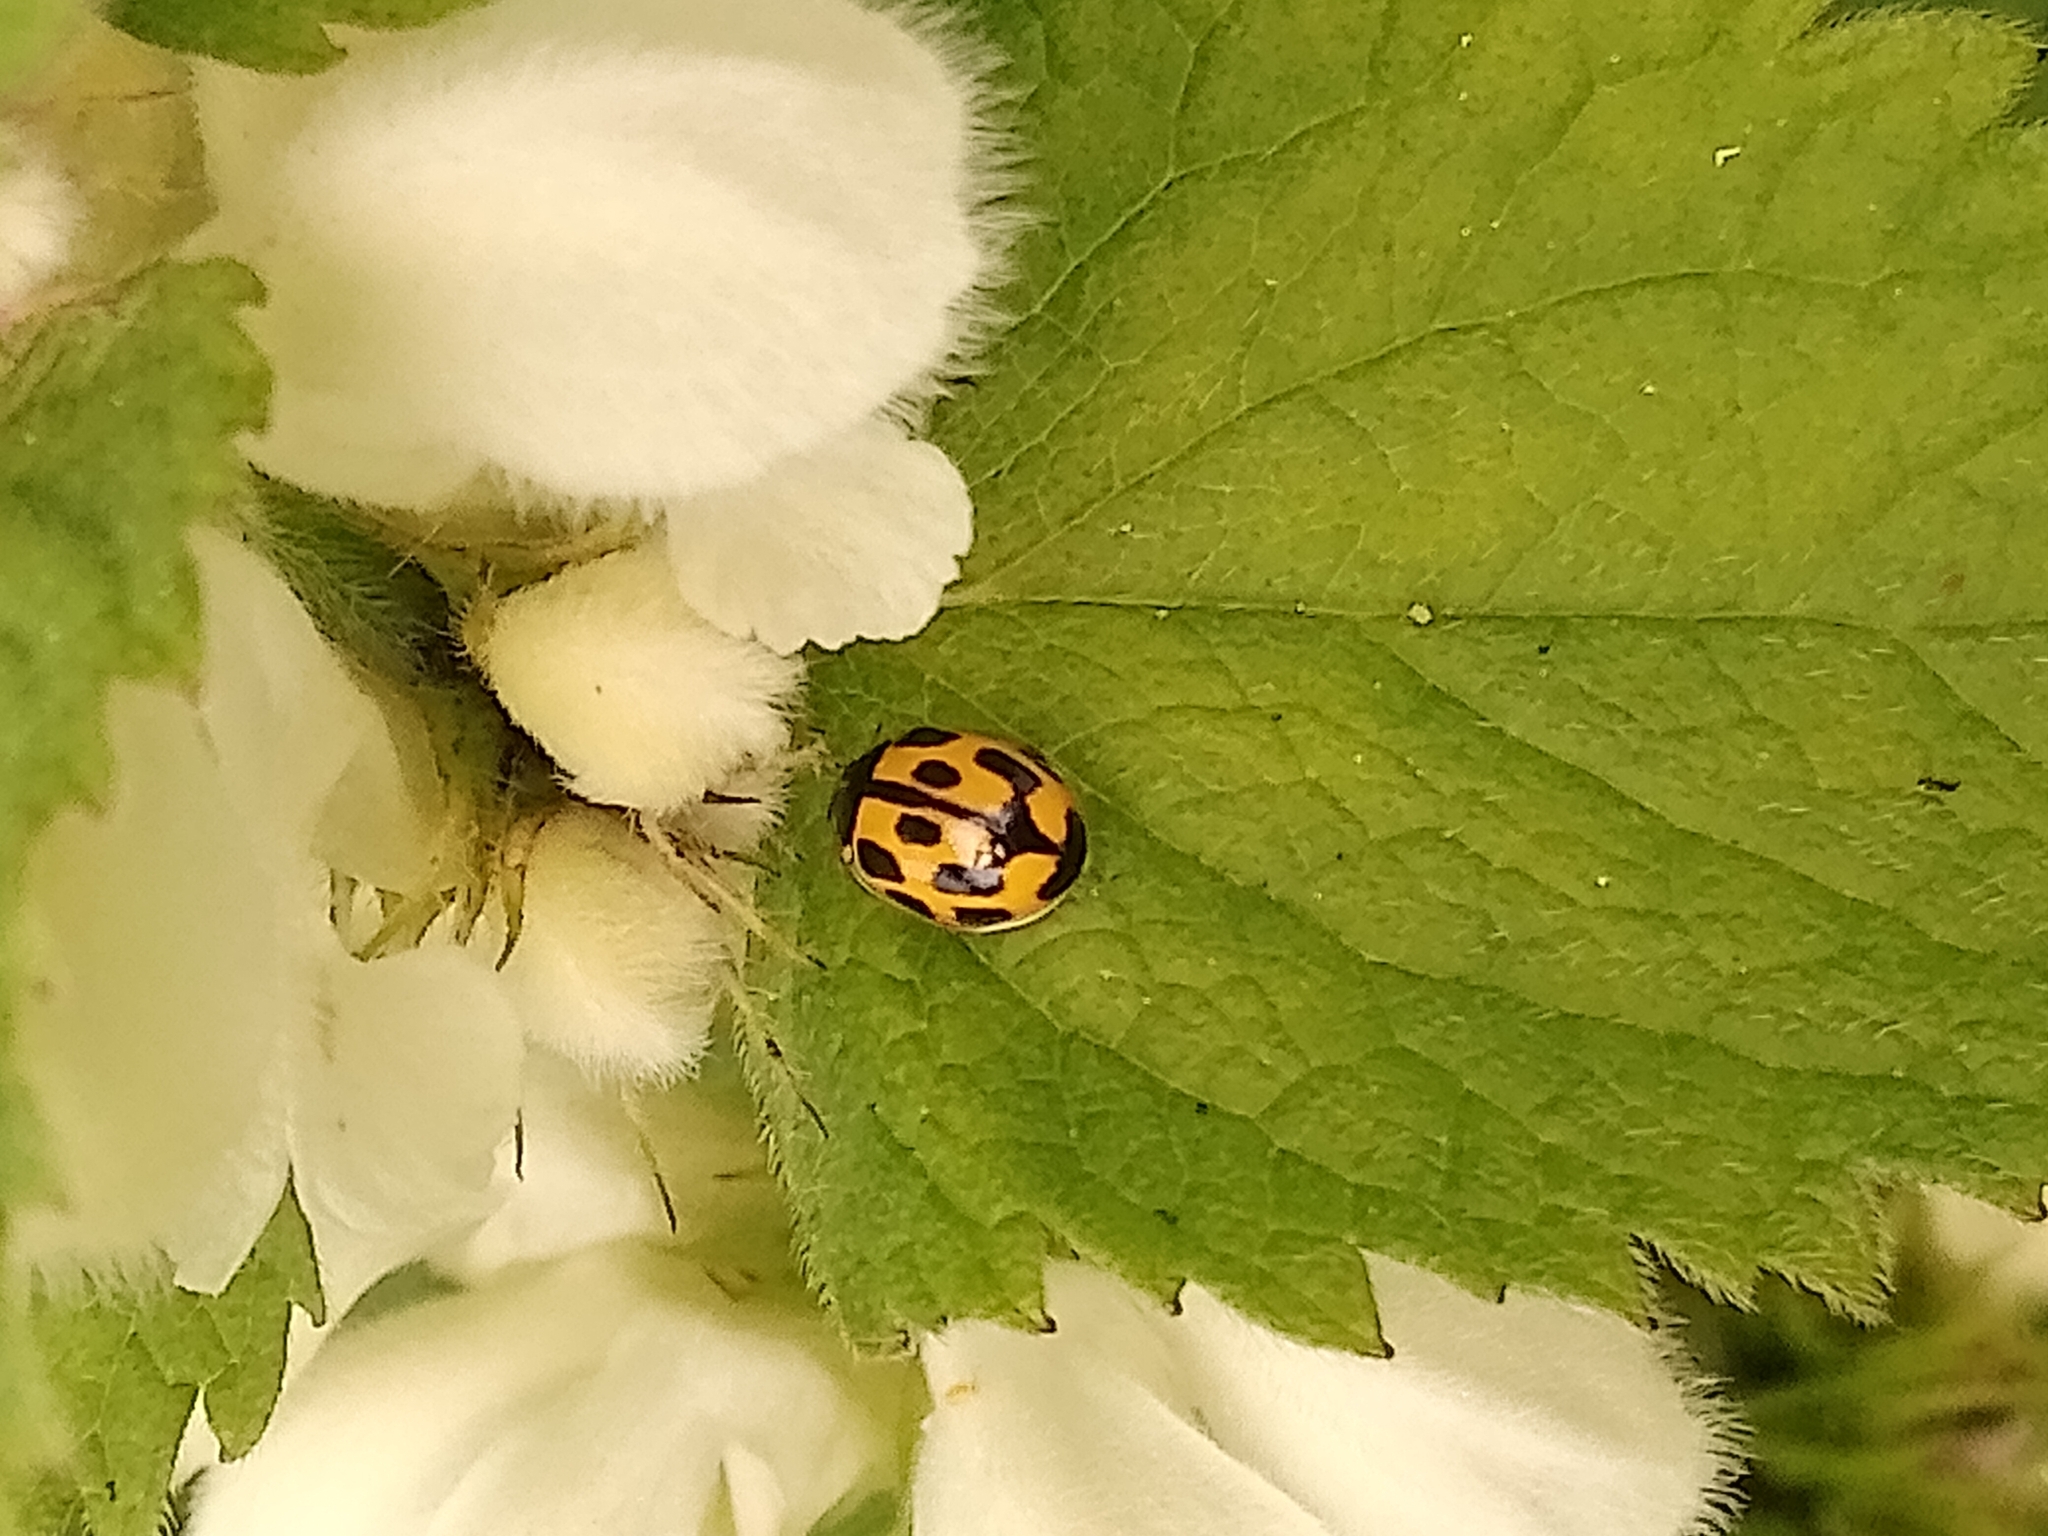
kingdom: Animalia
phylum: Arthropoda
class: Insecta
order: Coleoptera
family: Coccinellidae
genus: Propylaea
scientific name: Propylaea quatuordecimpunctata
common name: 14-spotted ladybird beetle
